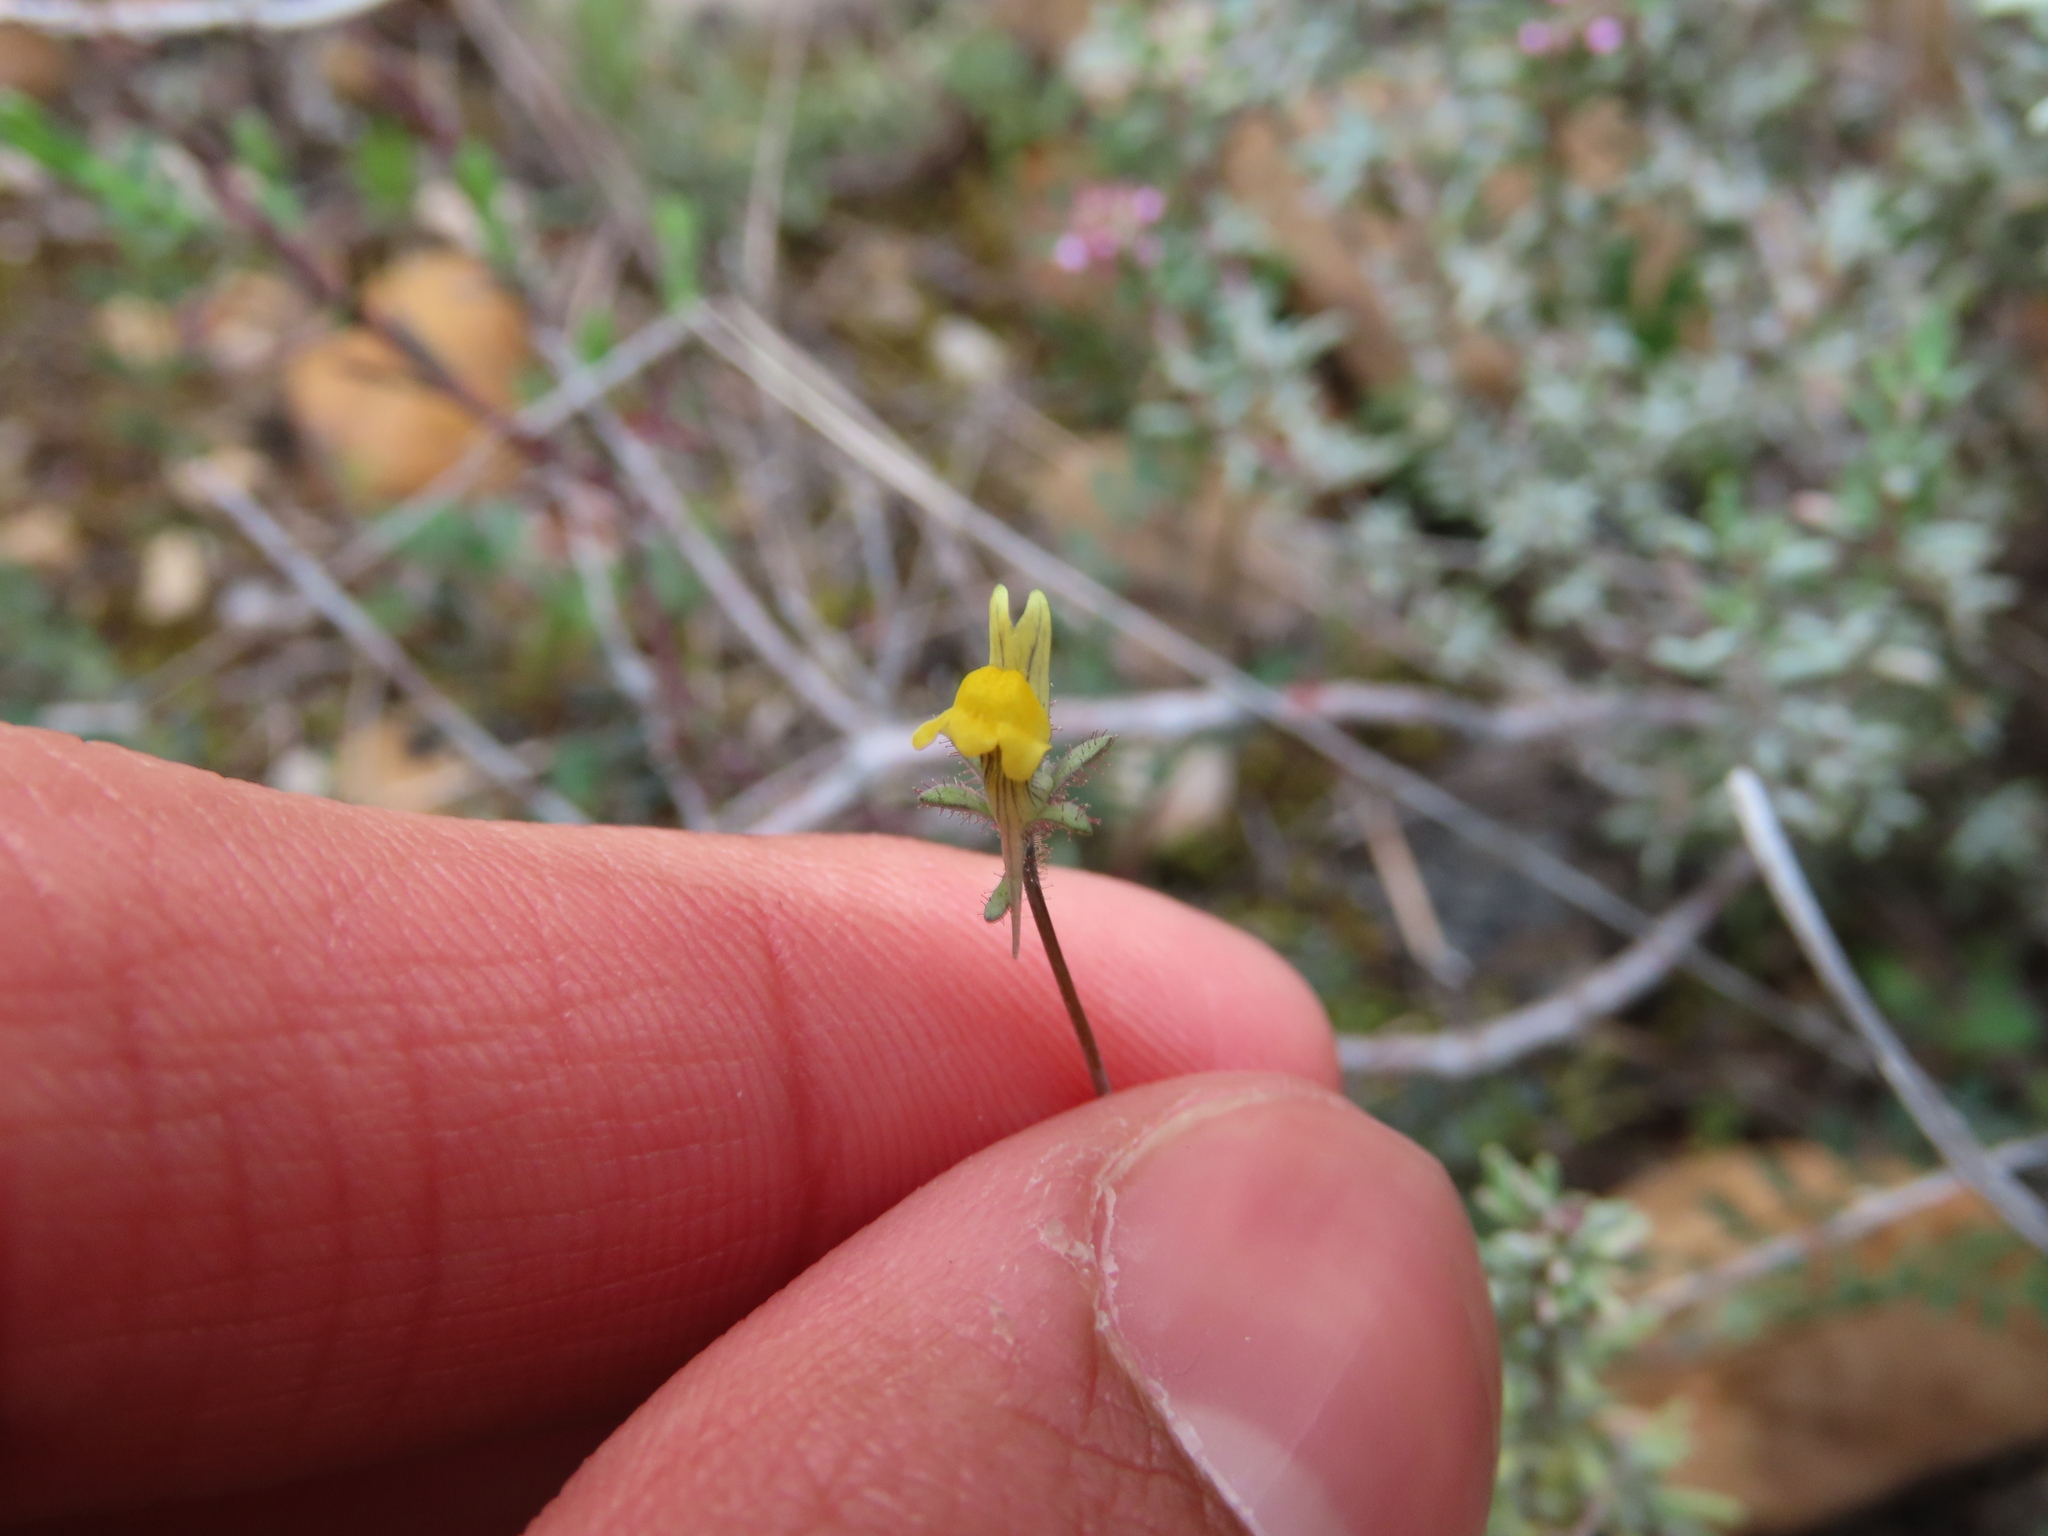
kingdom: Plantae
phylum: Tracheophyta
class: Magnoliopsida
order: Lamiales
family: Plantaginaceae
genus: Linaria
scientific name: Linaria simplex
